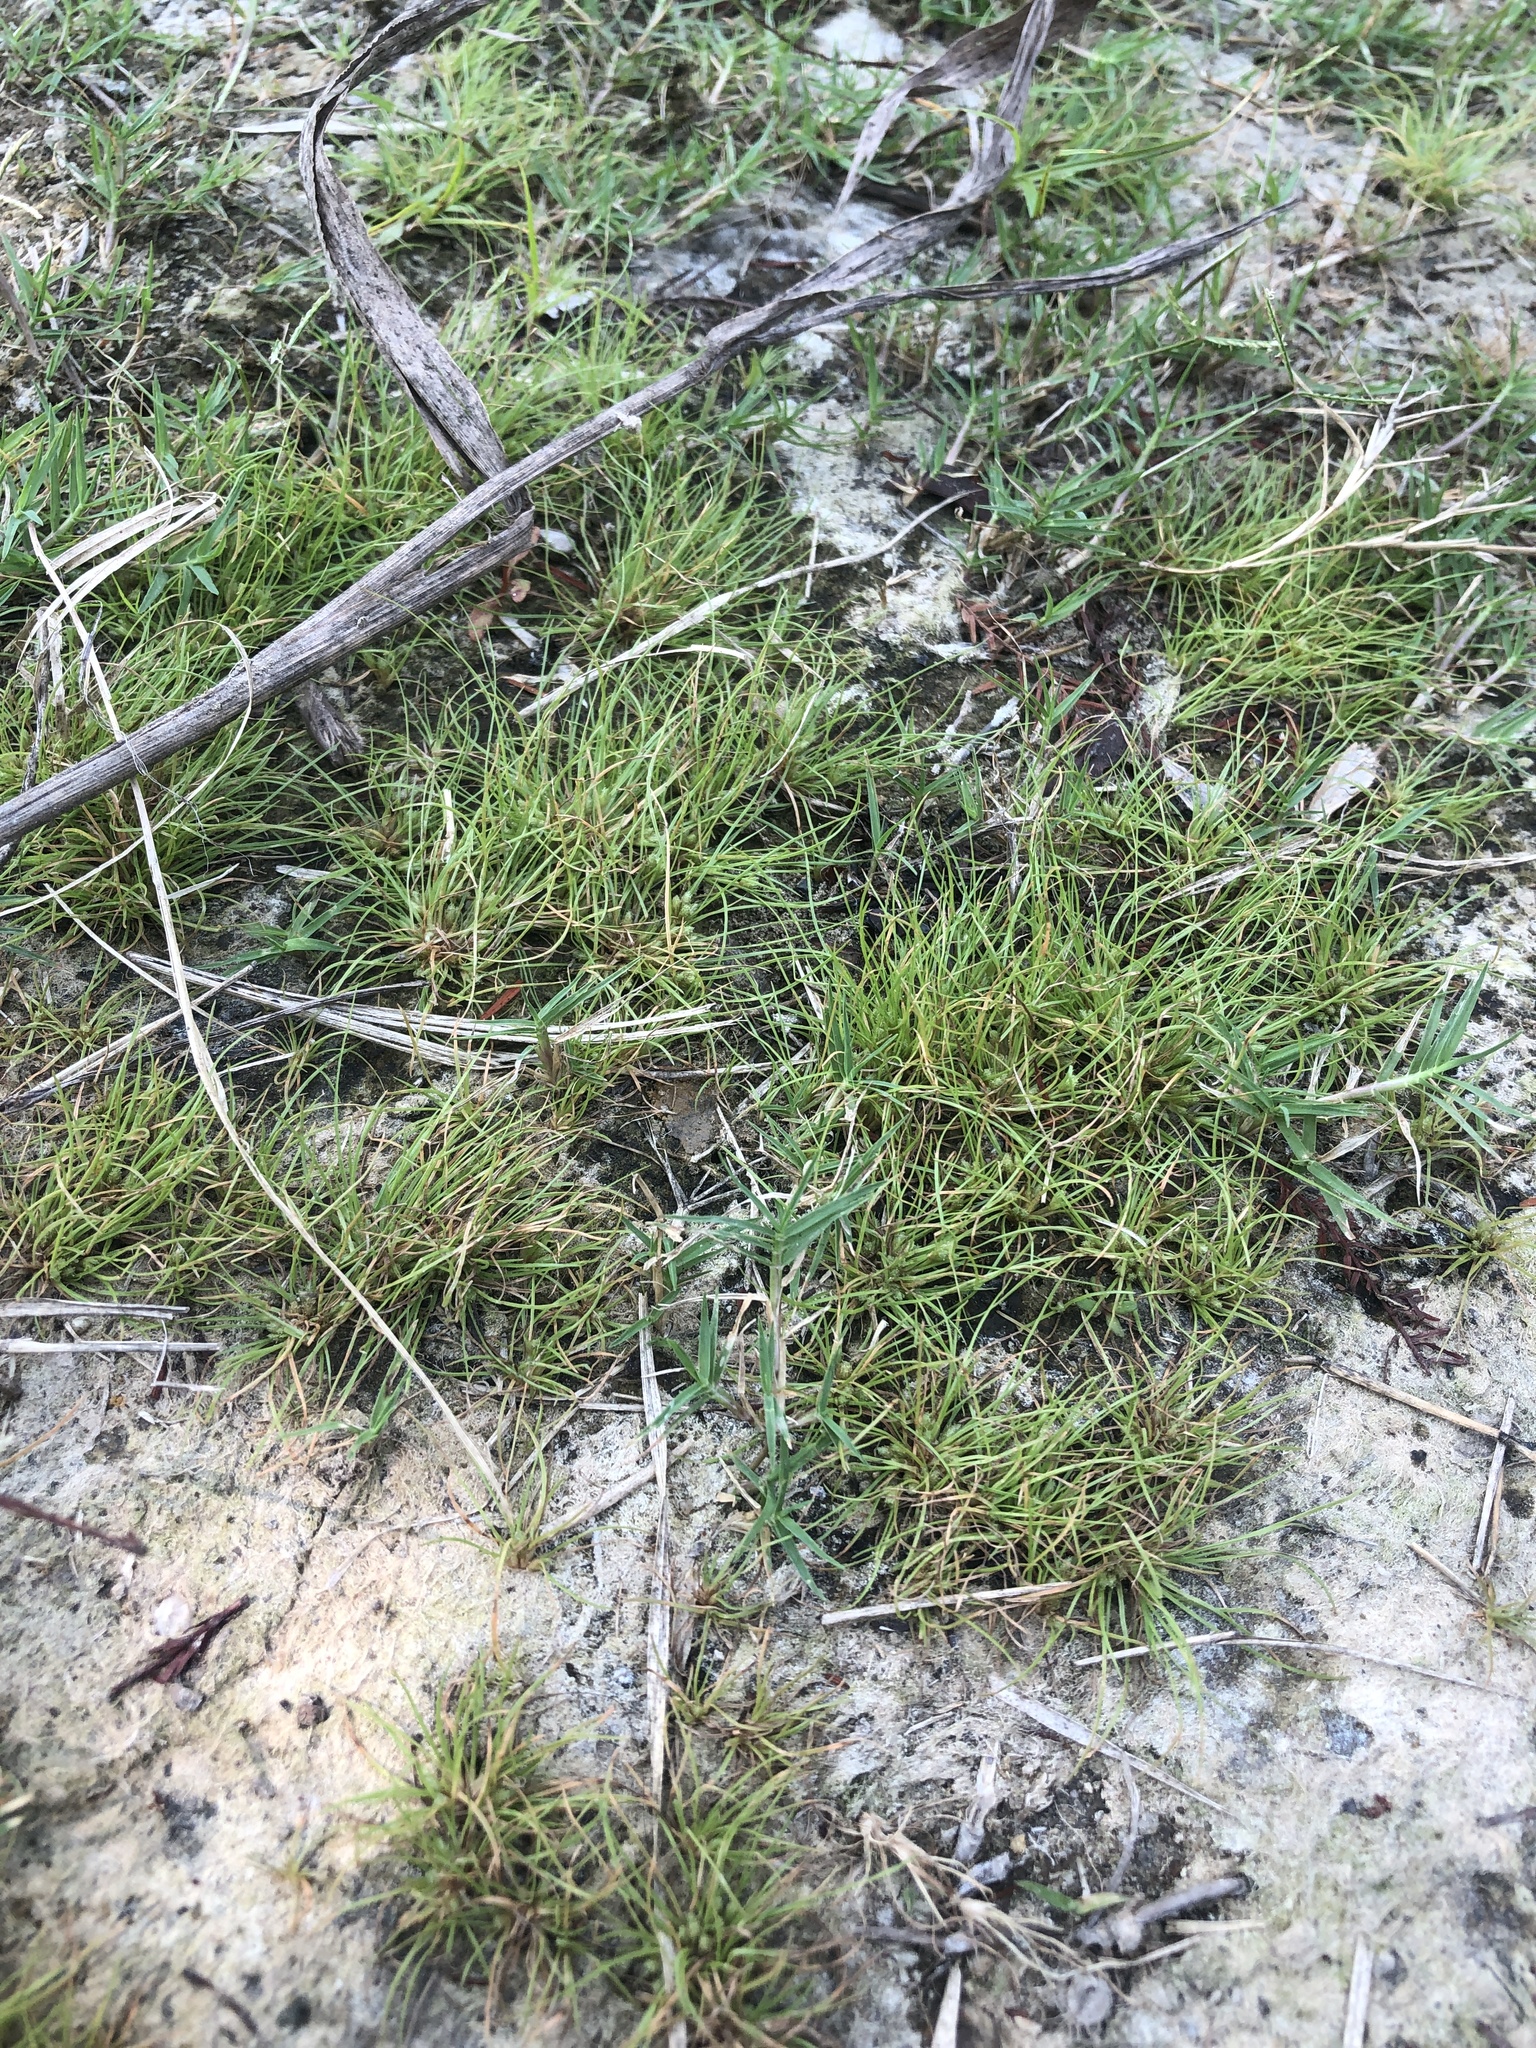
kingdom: Plantae
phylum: Tracheophyta
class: Liliopsida
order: Poales
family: Cyperaceae
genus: Fimbristylis
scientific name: Fimbristylis vahlii
